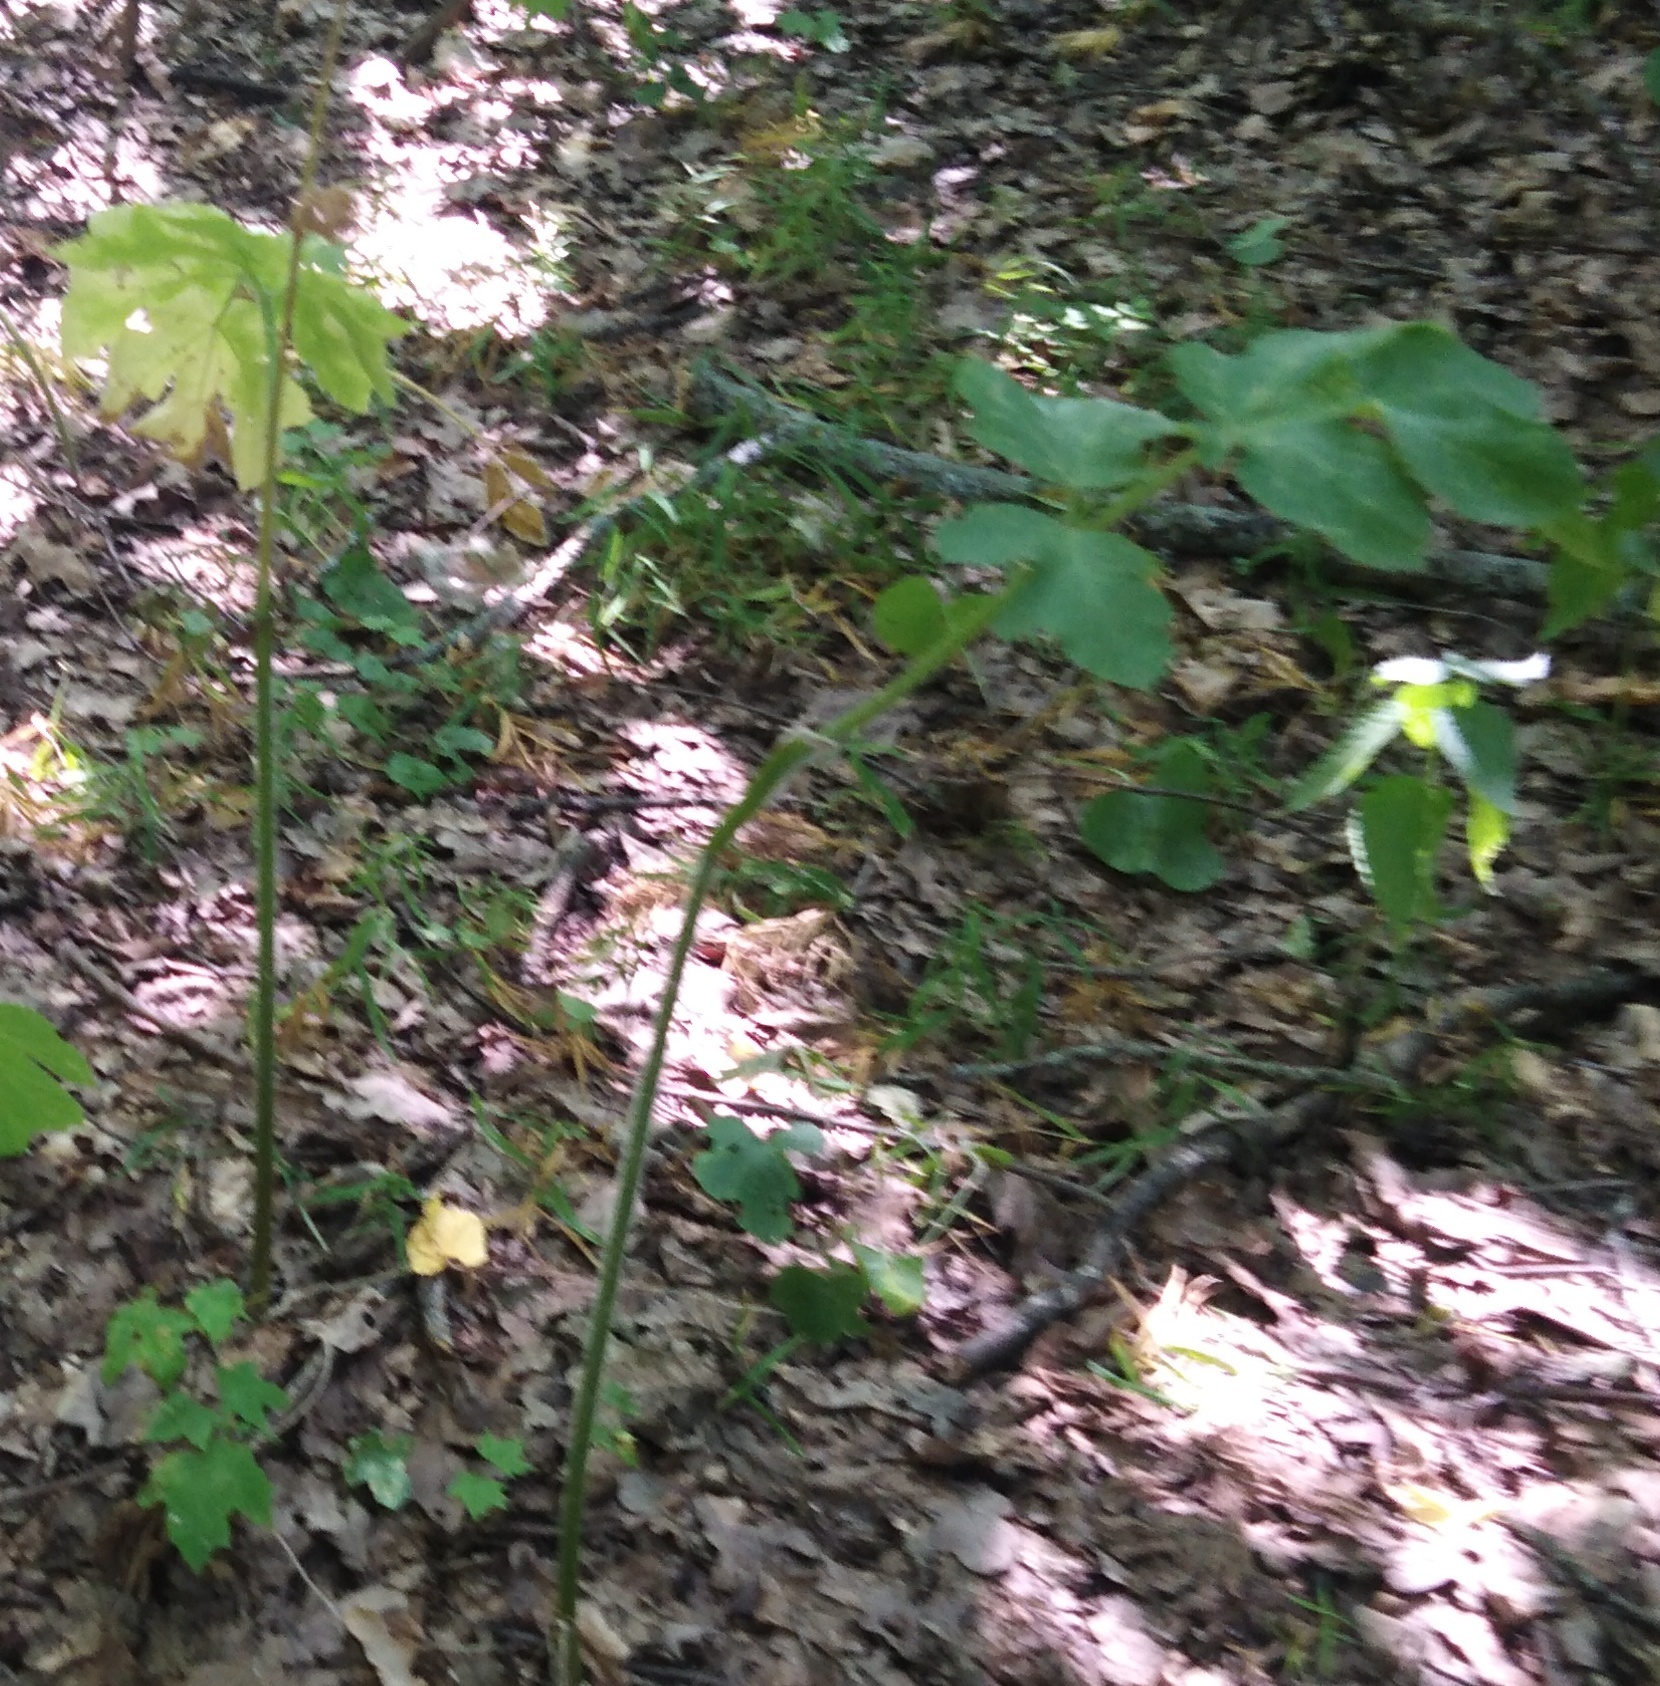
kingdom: Plantae
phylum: Tracheophyta
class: Magnoliopsida
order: Apiales
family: Apiaceae
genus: Heracleum
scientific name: Heracleum sphondylium
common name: Hogweed
